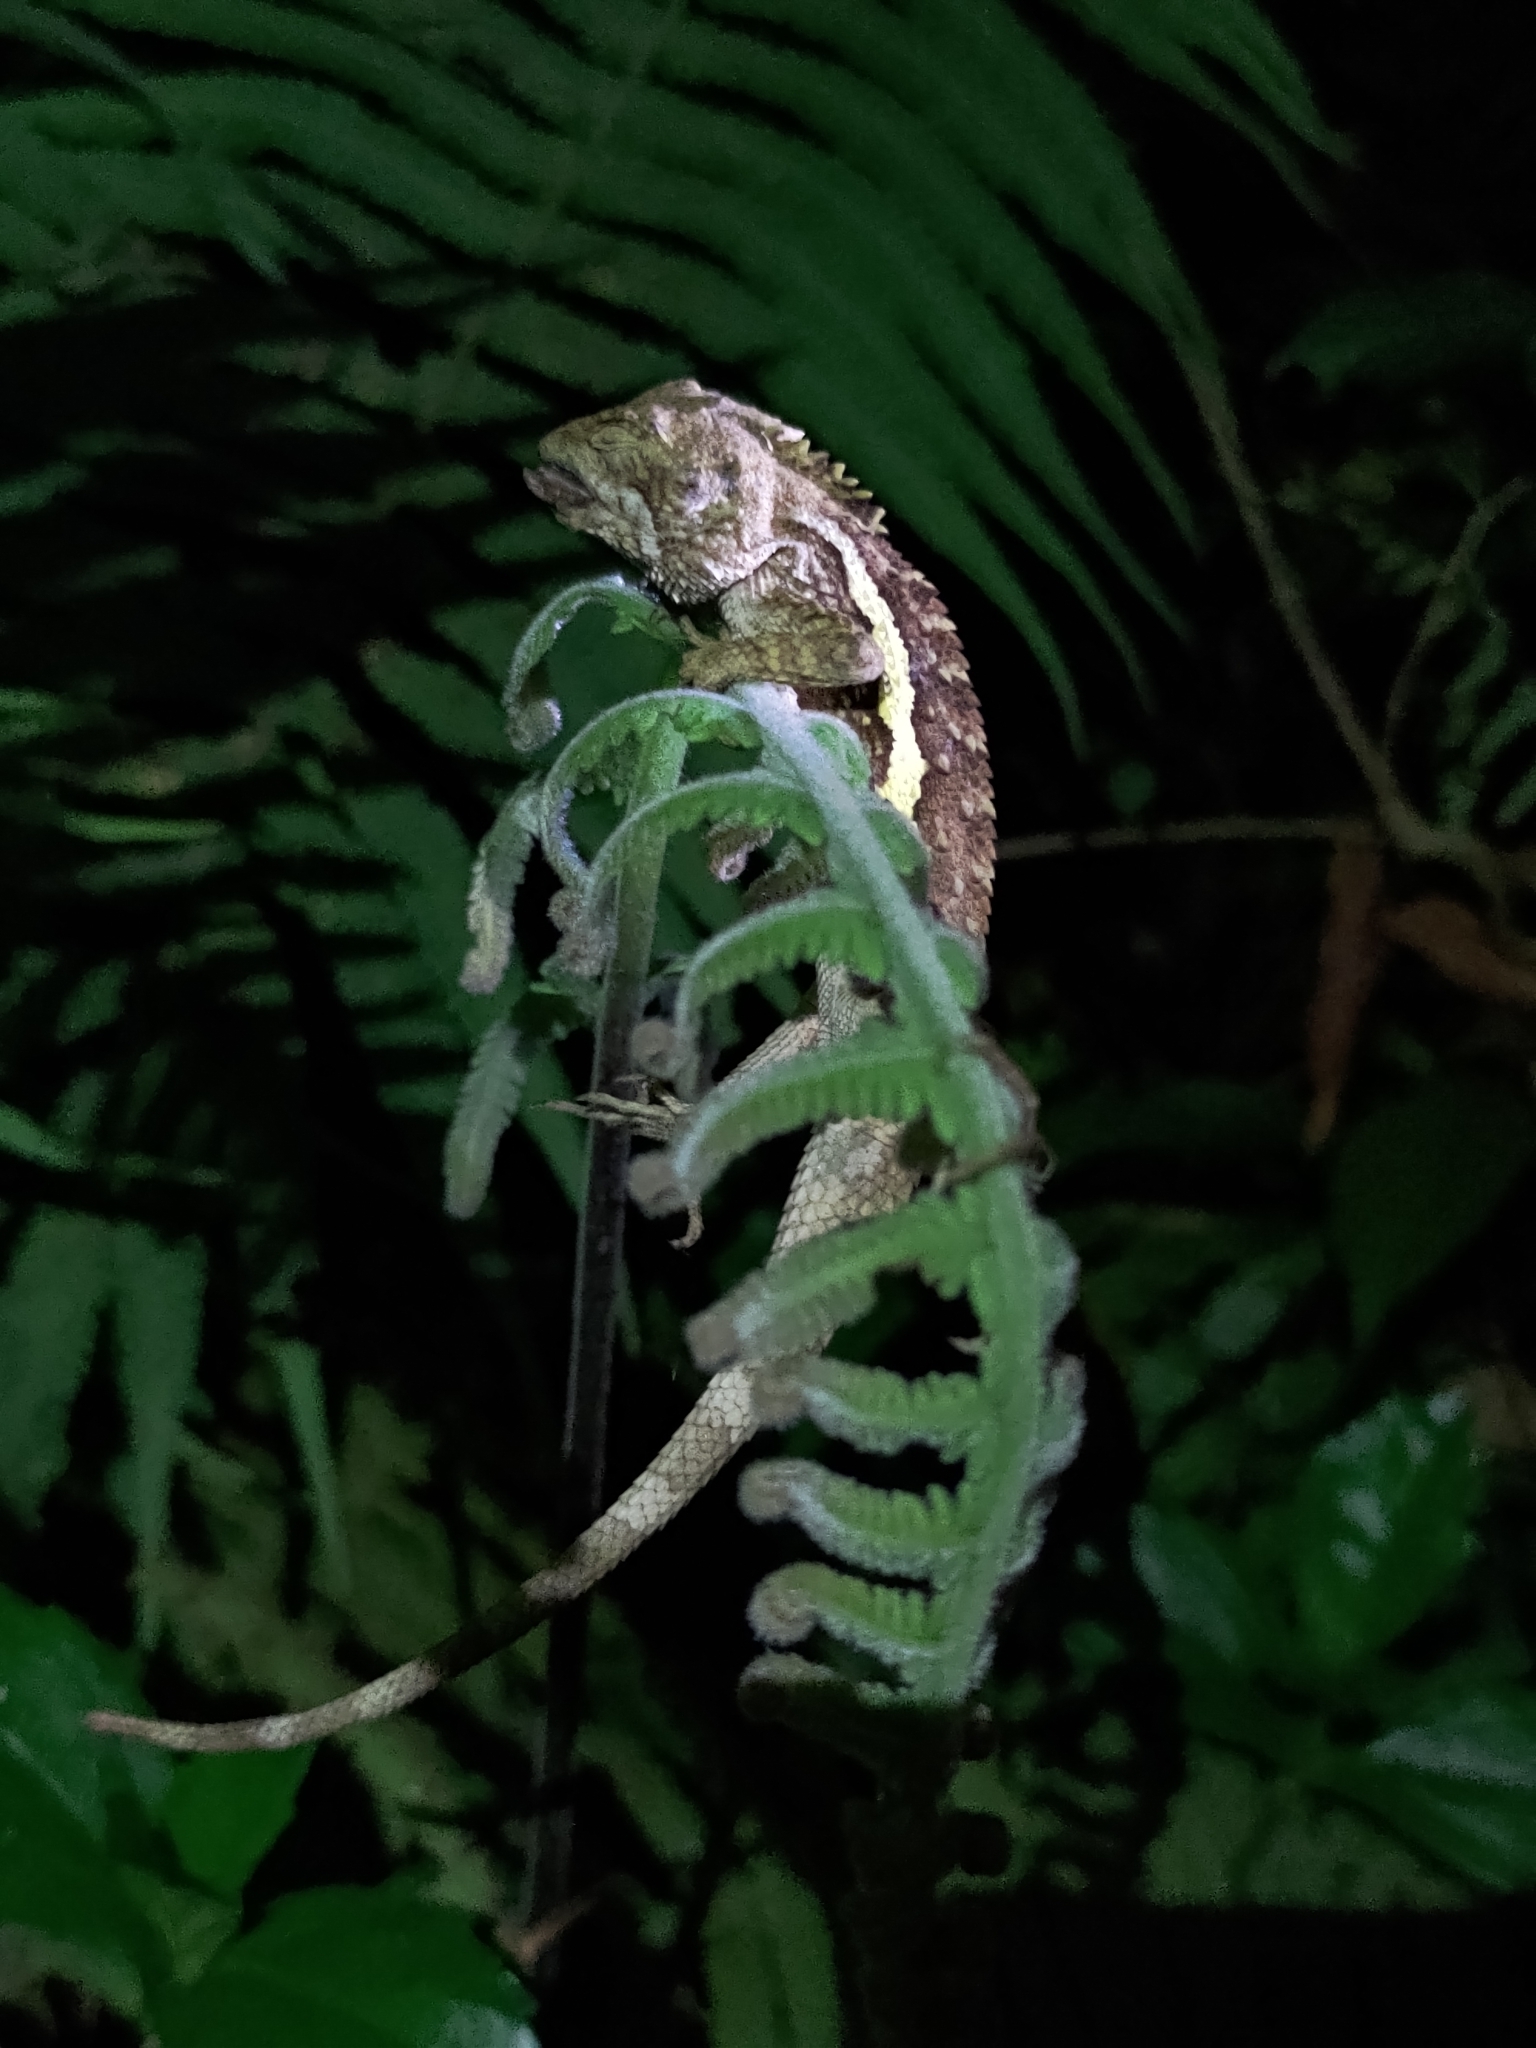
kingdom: Animalia
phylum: Chordata
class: Squamata
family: Agamidae
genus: Diploderma
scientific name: Diploderma swinhonis
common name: Taiwan japalure
